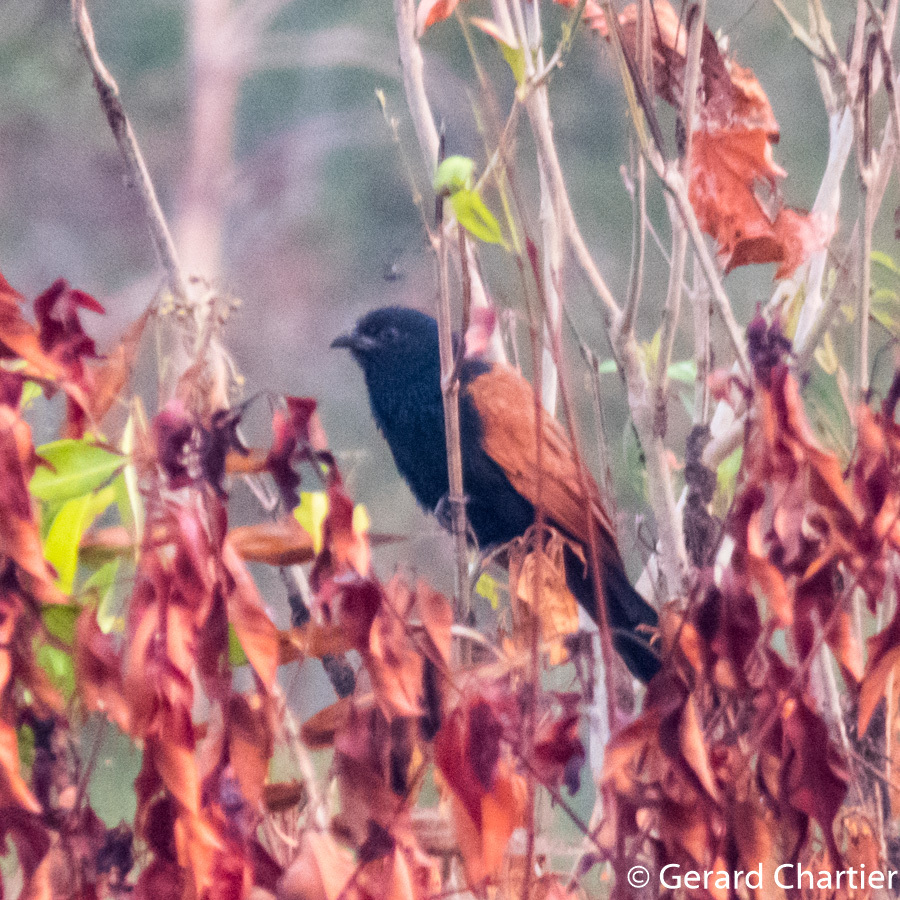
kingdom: Animalia
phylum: Chordata
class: Aves
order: Cuculiformes
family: Cuculidae
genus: Centropus
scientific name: Centropus sinensis
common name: Greater coucal
